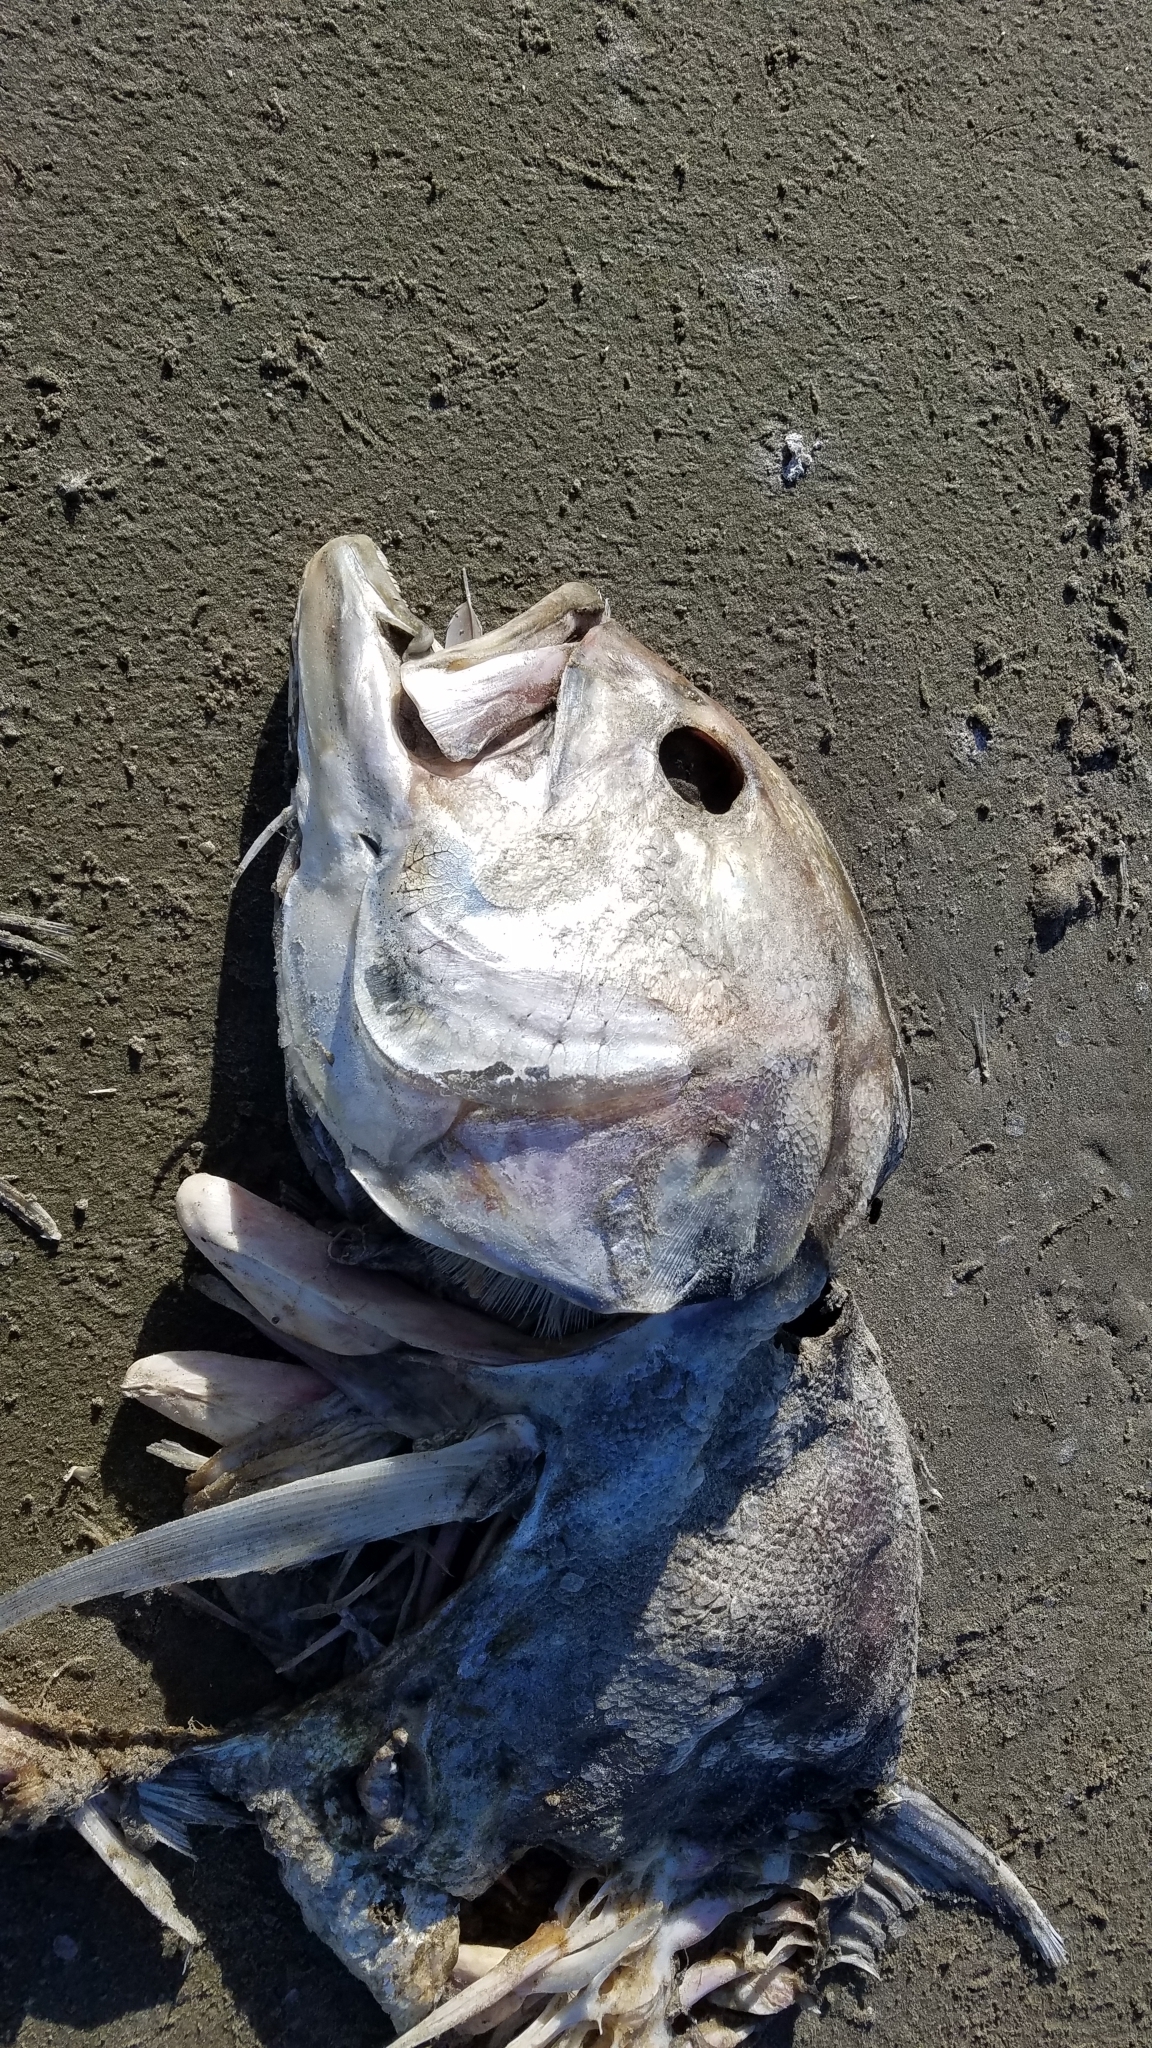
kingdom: Animalia
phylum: Chordata
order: Perciformes
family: Carangidae
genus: Caranx
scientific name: Caranx hippos
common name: Common jack
